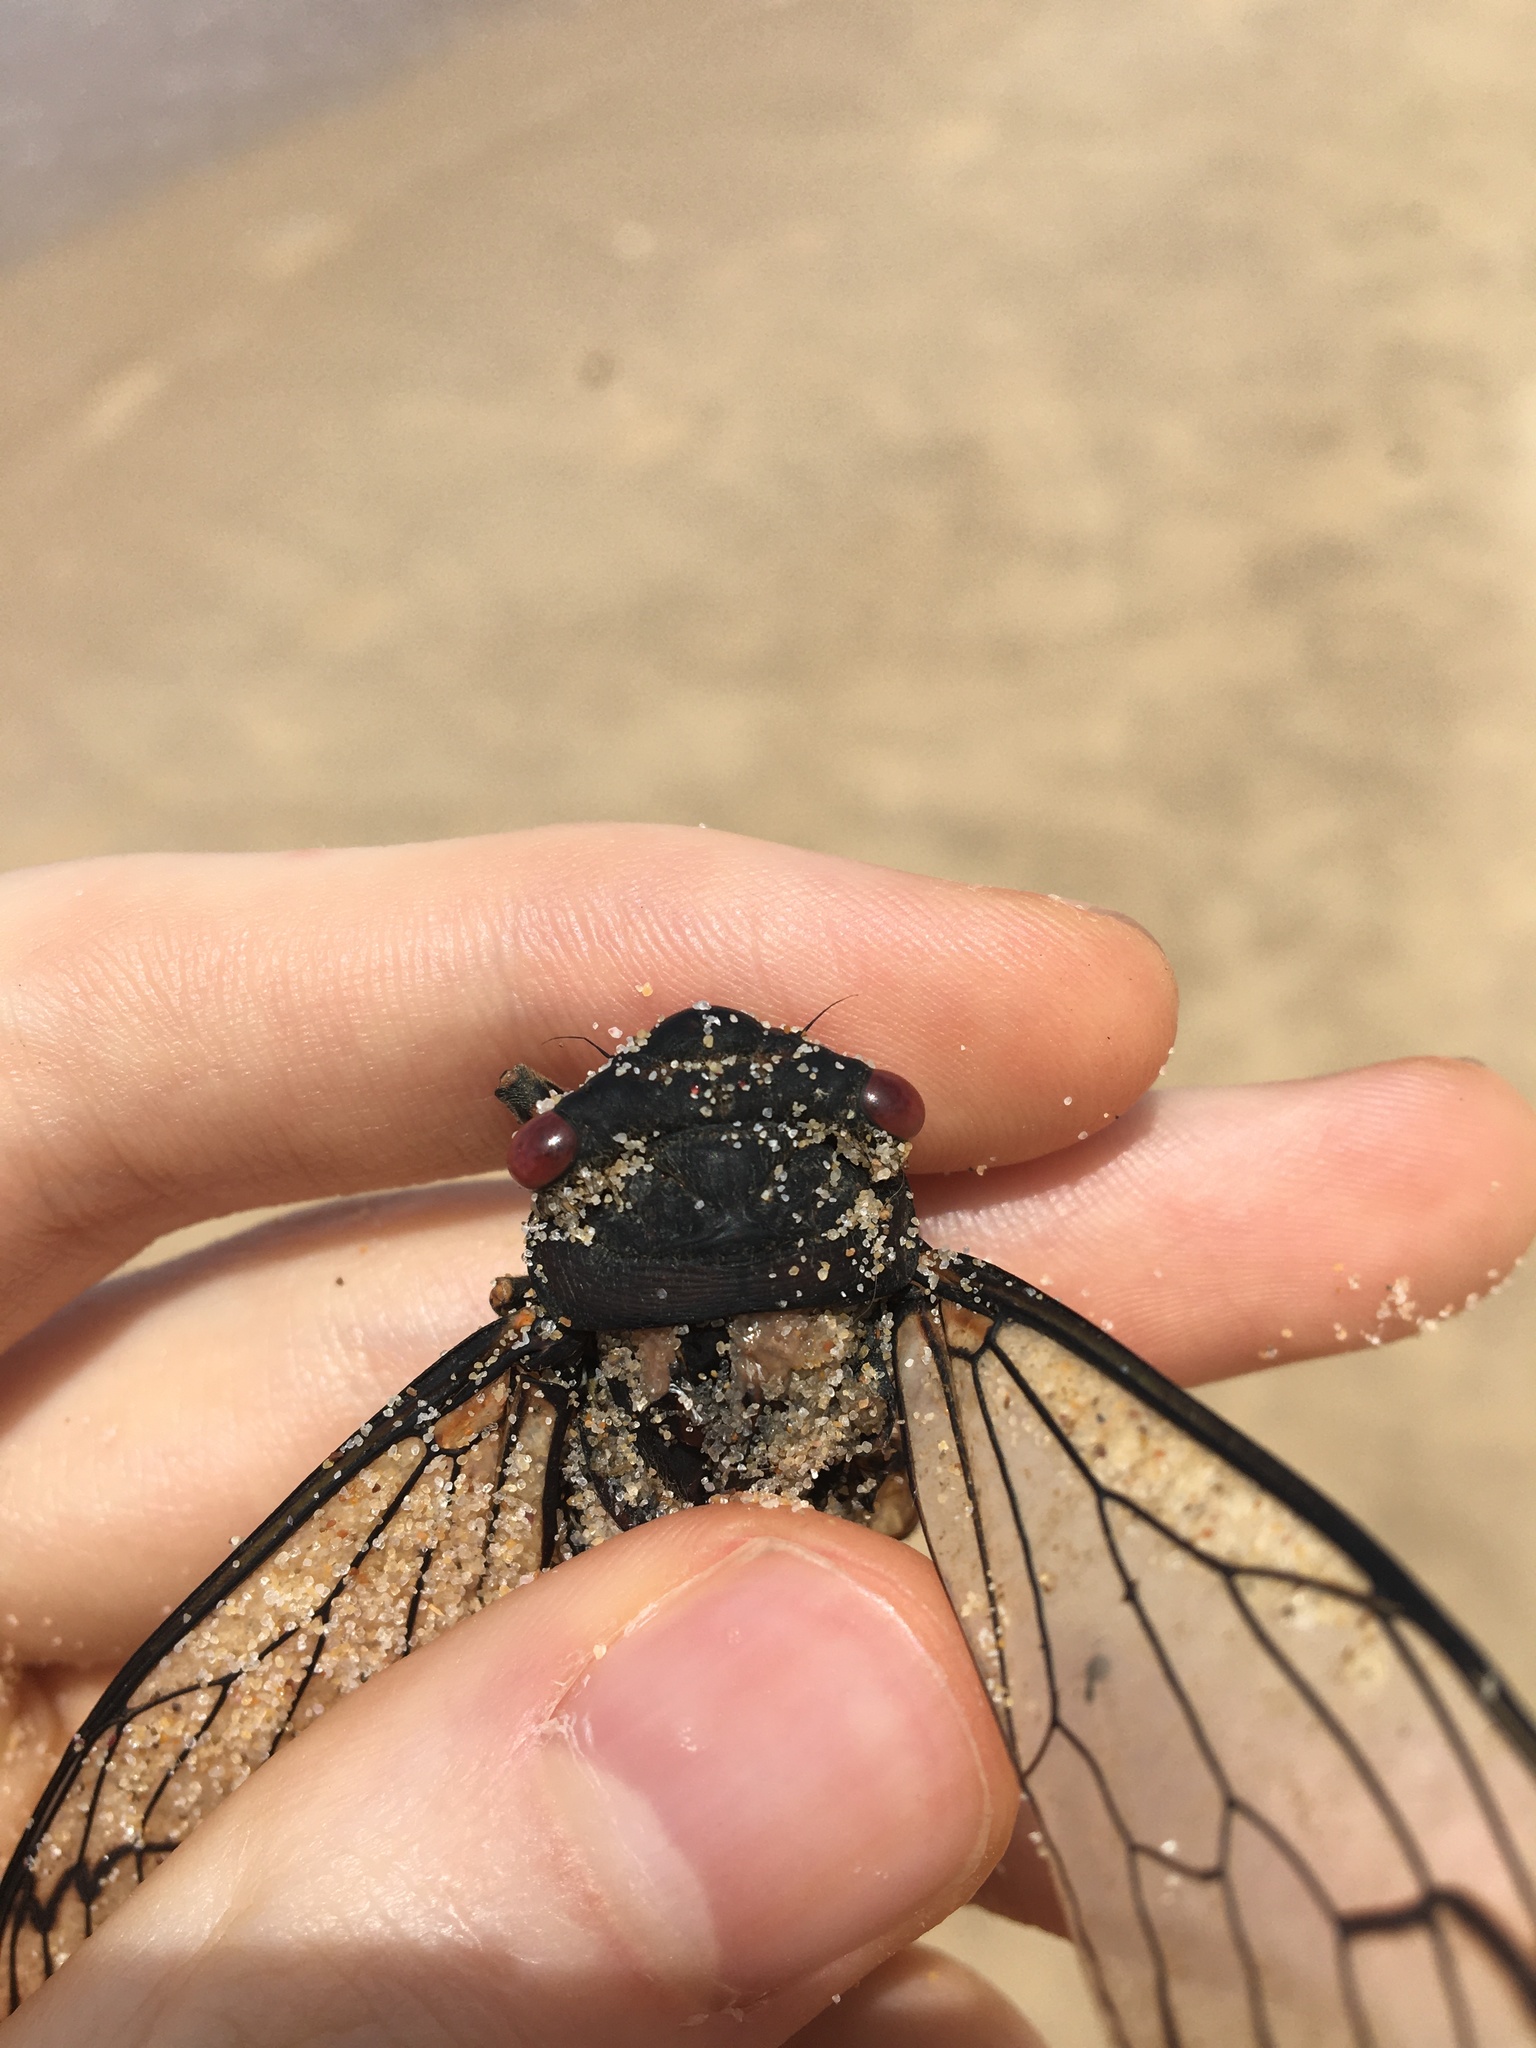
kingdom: Animalia
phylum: Arthropoda
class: Insecta
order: Hemiptera
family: Cicadidae
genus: Psaltoda
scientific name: Psaltoda moerens
